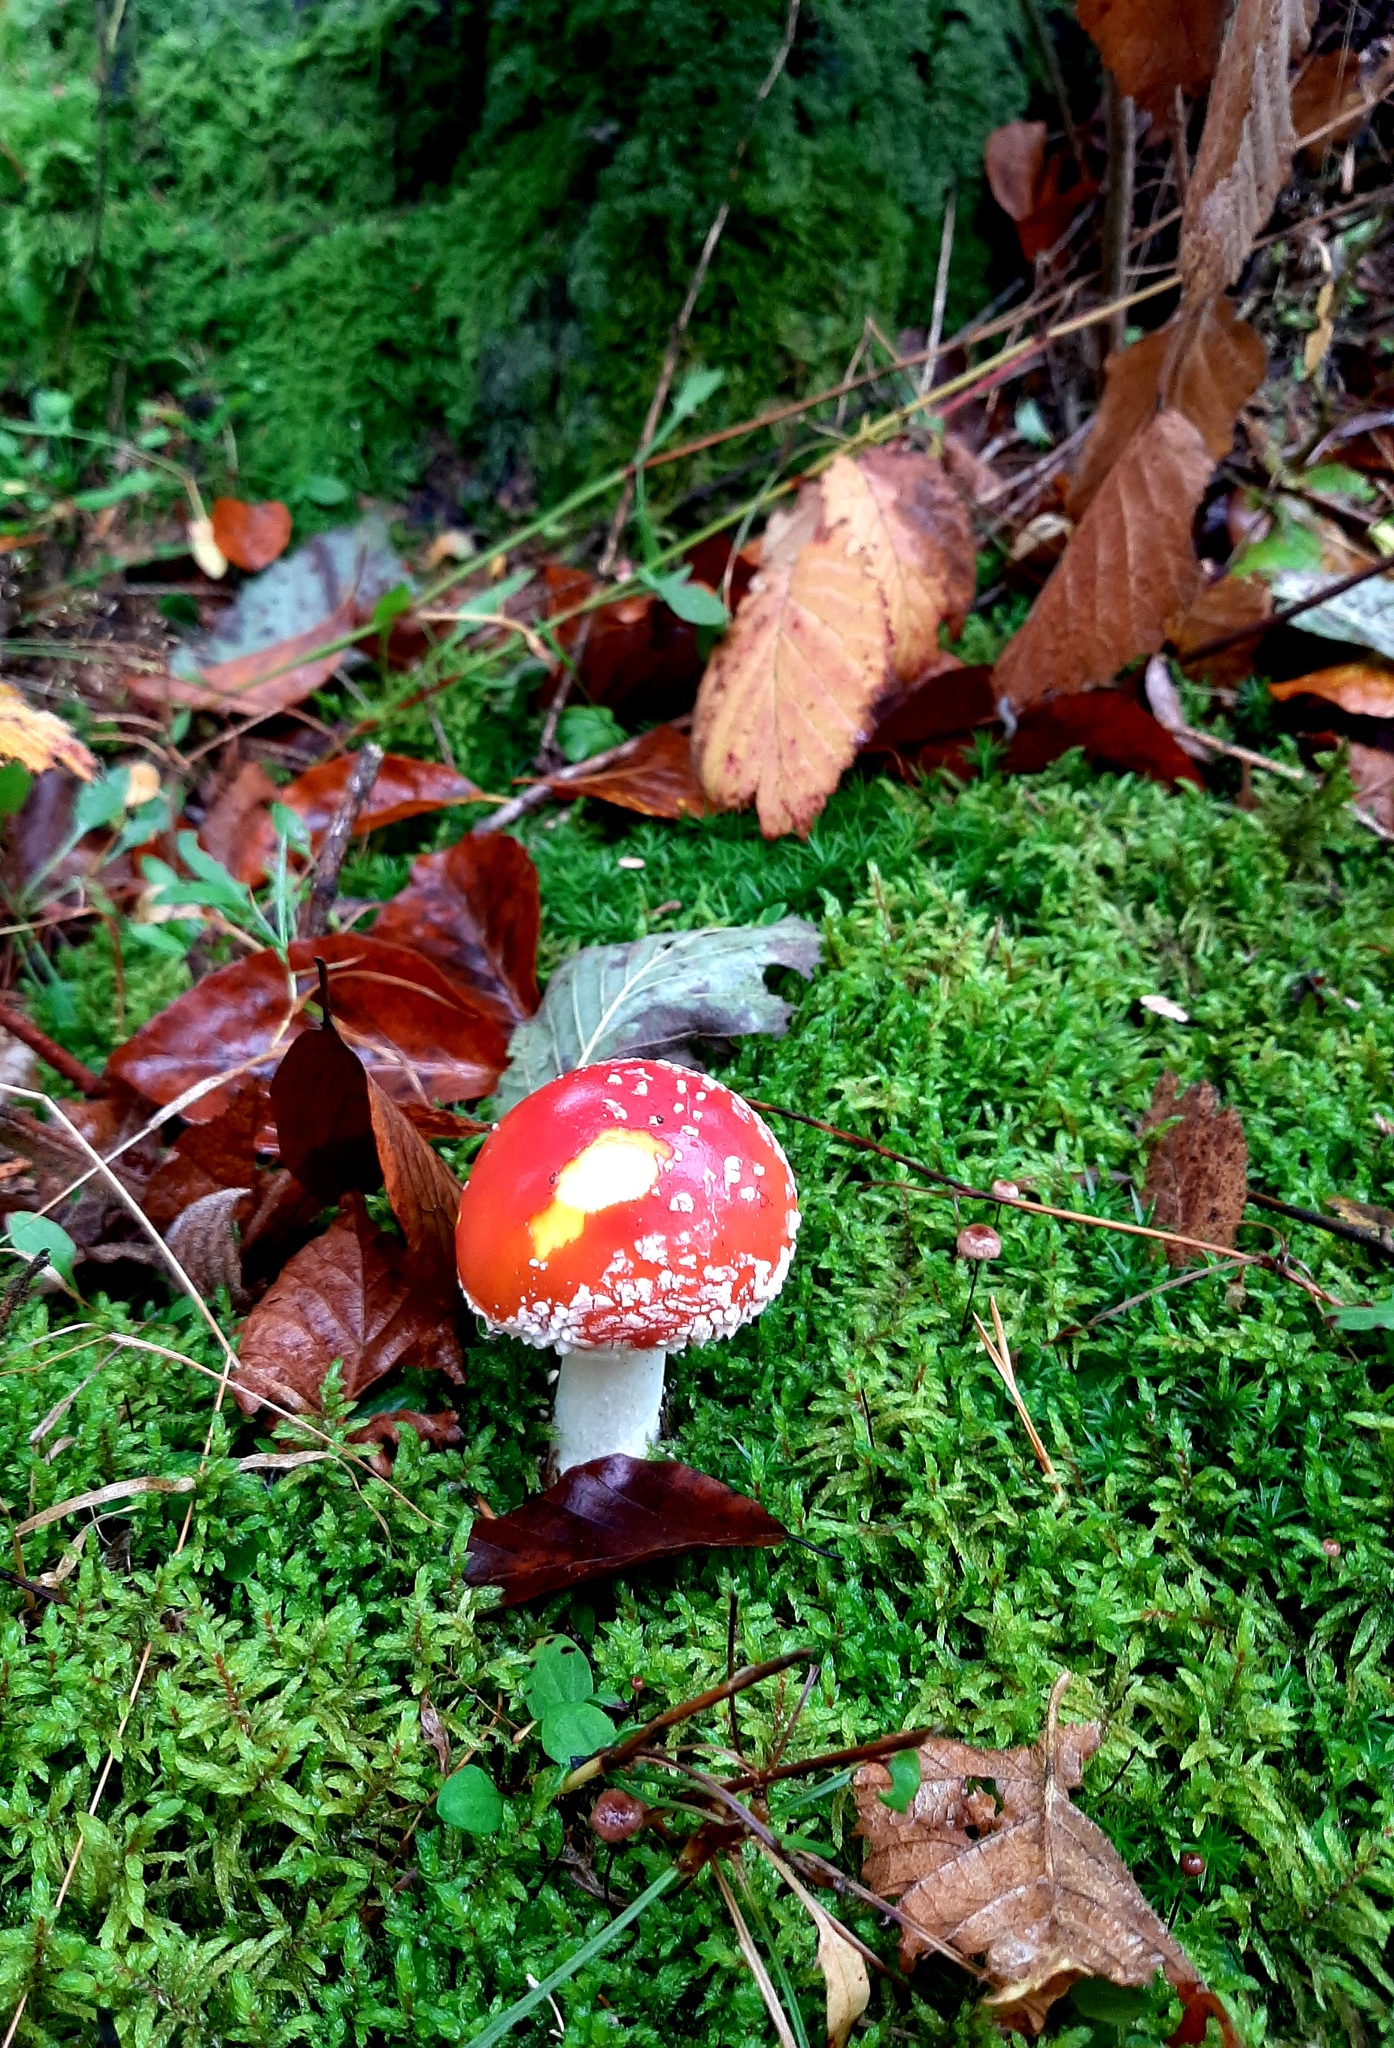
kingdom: Fungi
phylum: Basidiomycota
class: Agaricomycetes
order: Agaricales
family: Amanitaceae
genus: Amanita
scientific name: Amanita muscaria
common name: Fly agaric
